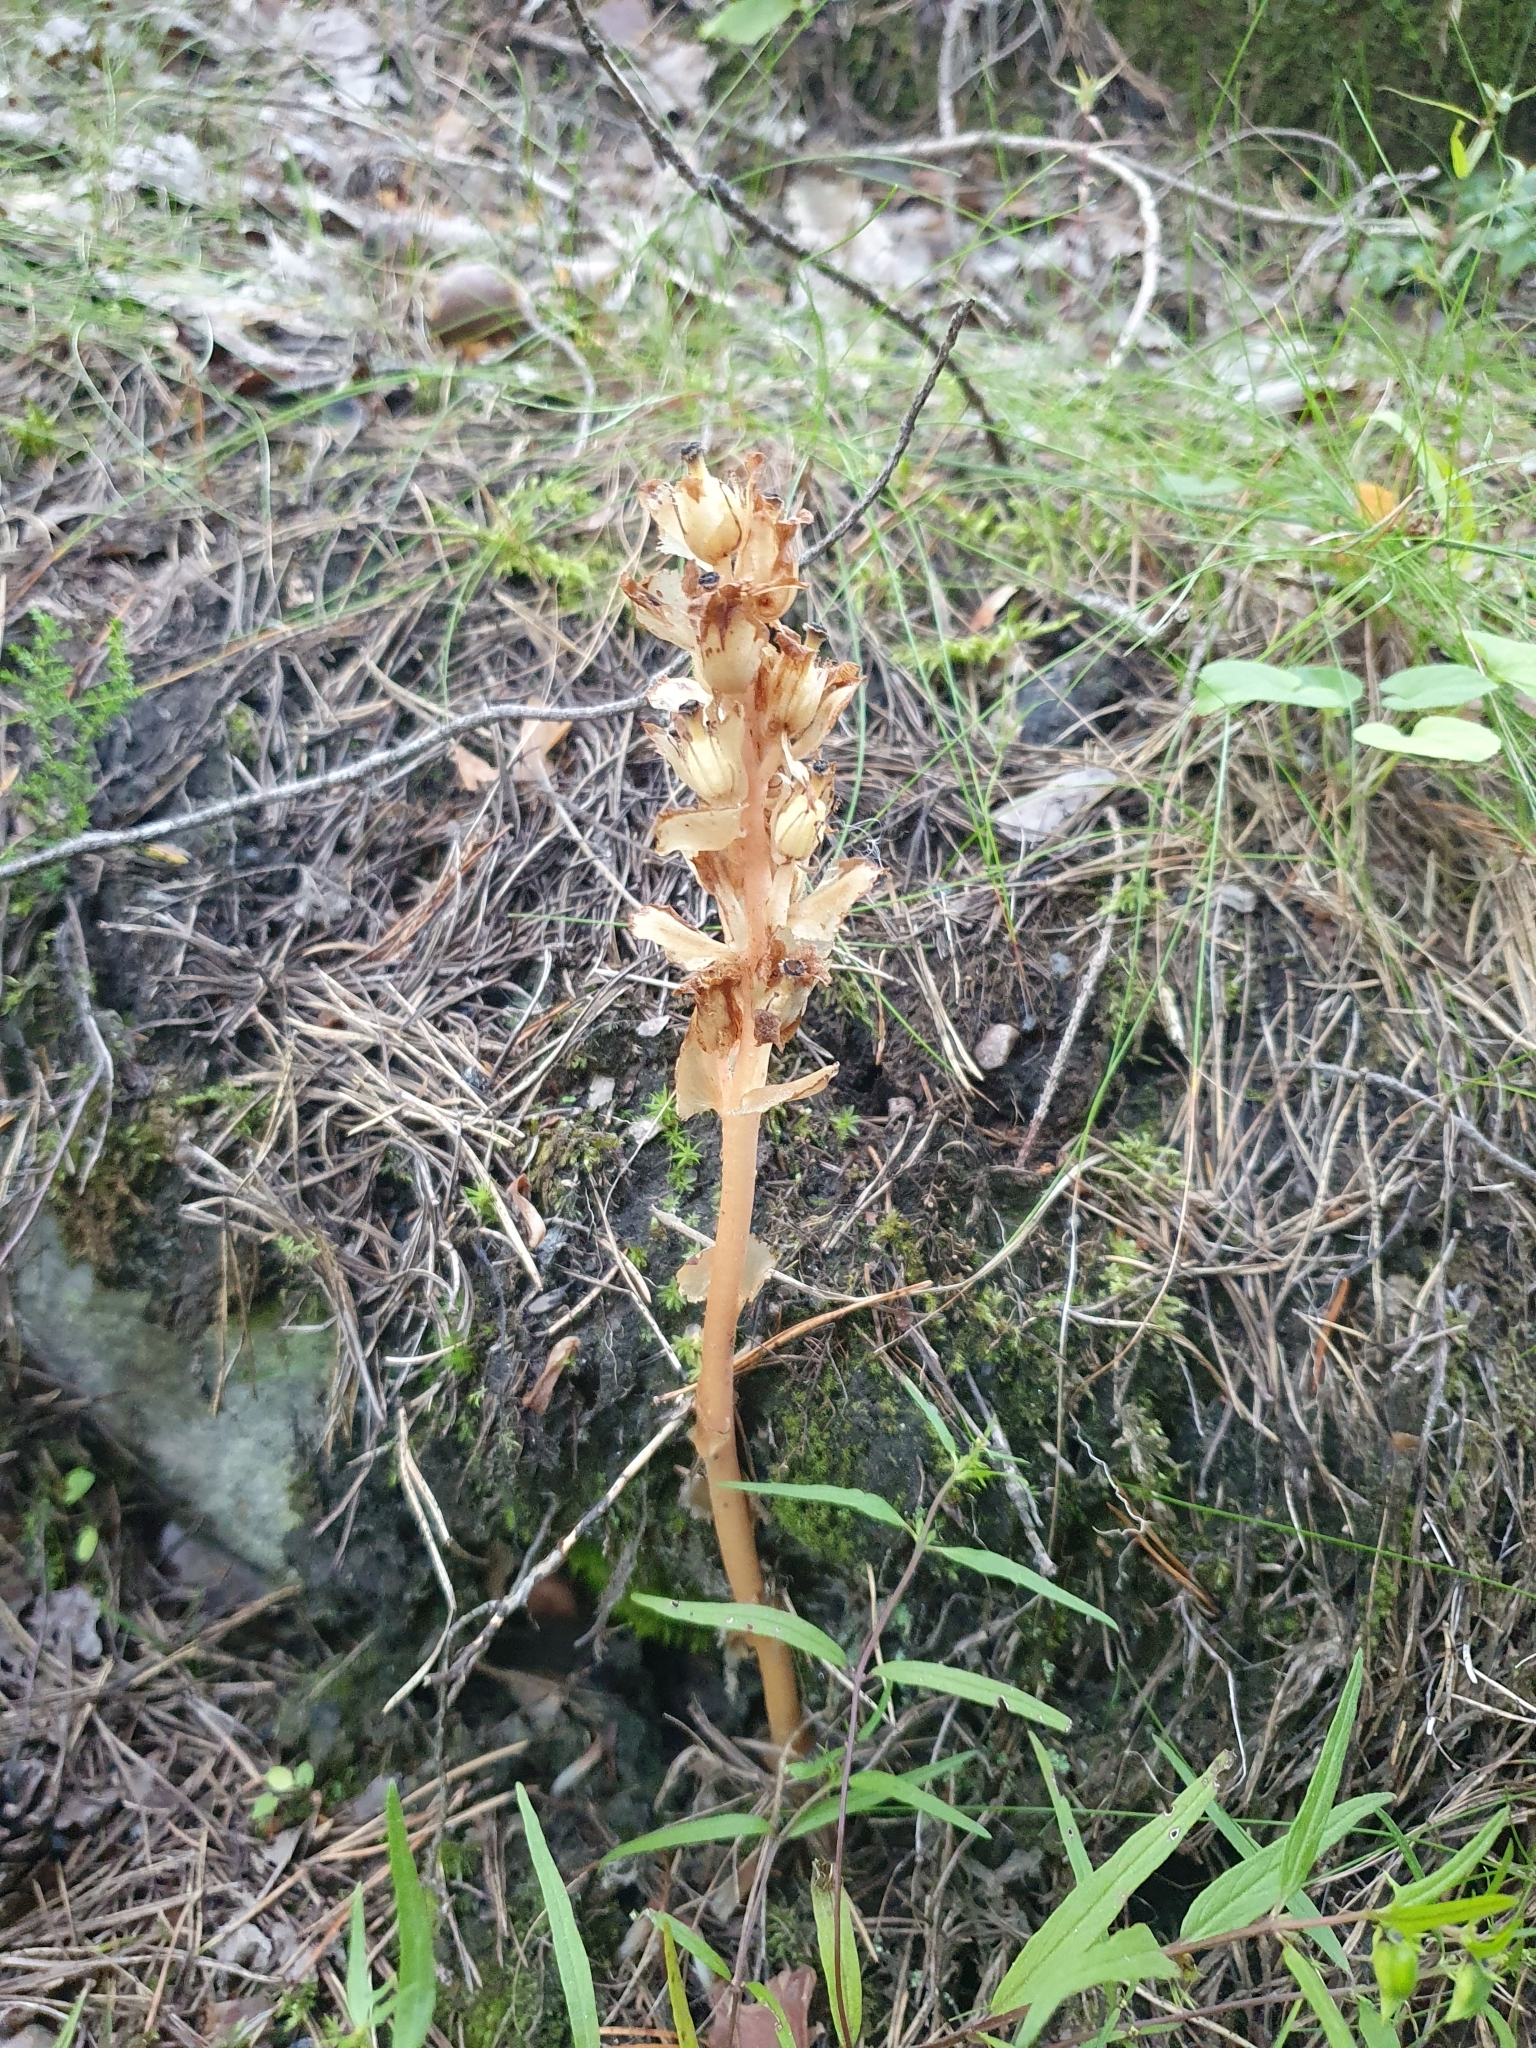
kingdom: Plantae
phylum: Tracheophyta
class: Magnoliopsida
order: Ericales
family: Ericaceae
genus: Hypopitys
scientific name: Hypopitys hypophegea
